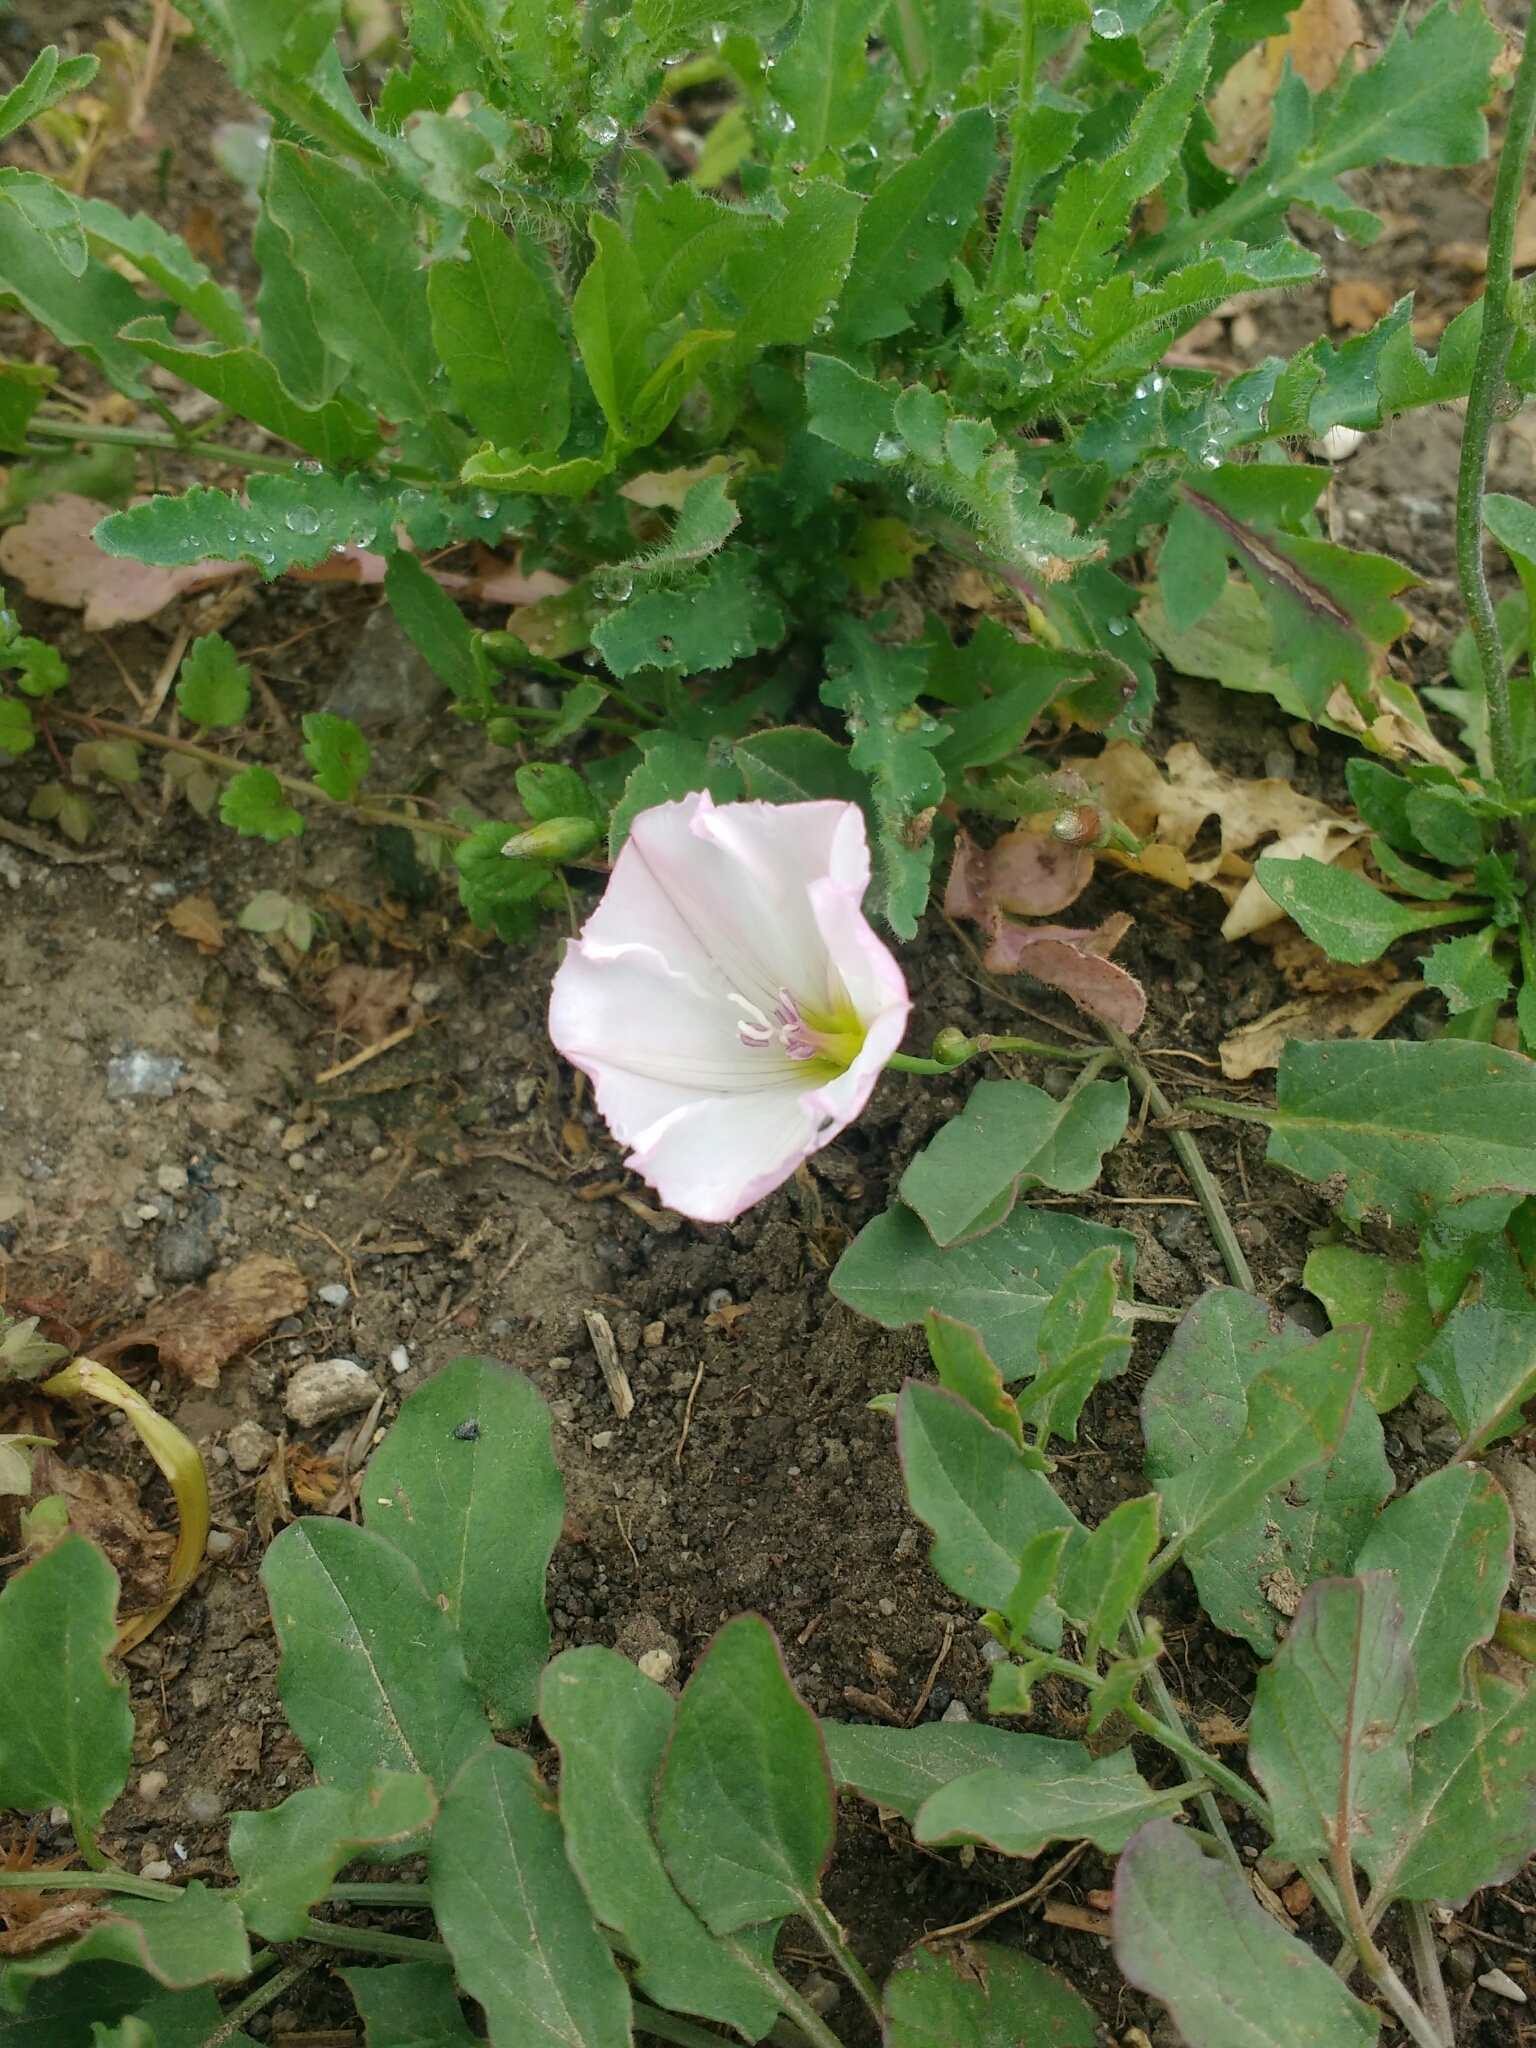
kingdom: Plantae
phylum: Tracheophyta
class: Magnoliopsida
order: Solanales
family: Convolvulaceae
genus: Convolvulus
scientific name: Convolvulus arvensis
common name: Field bindweed
